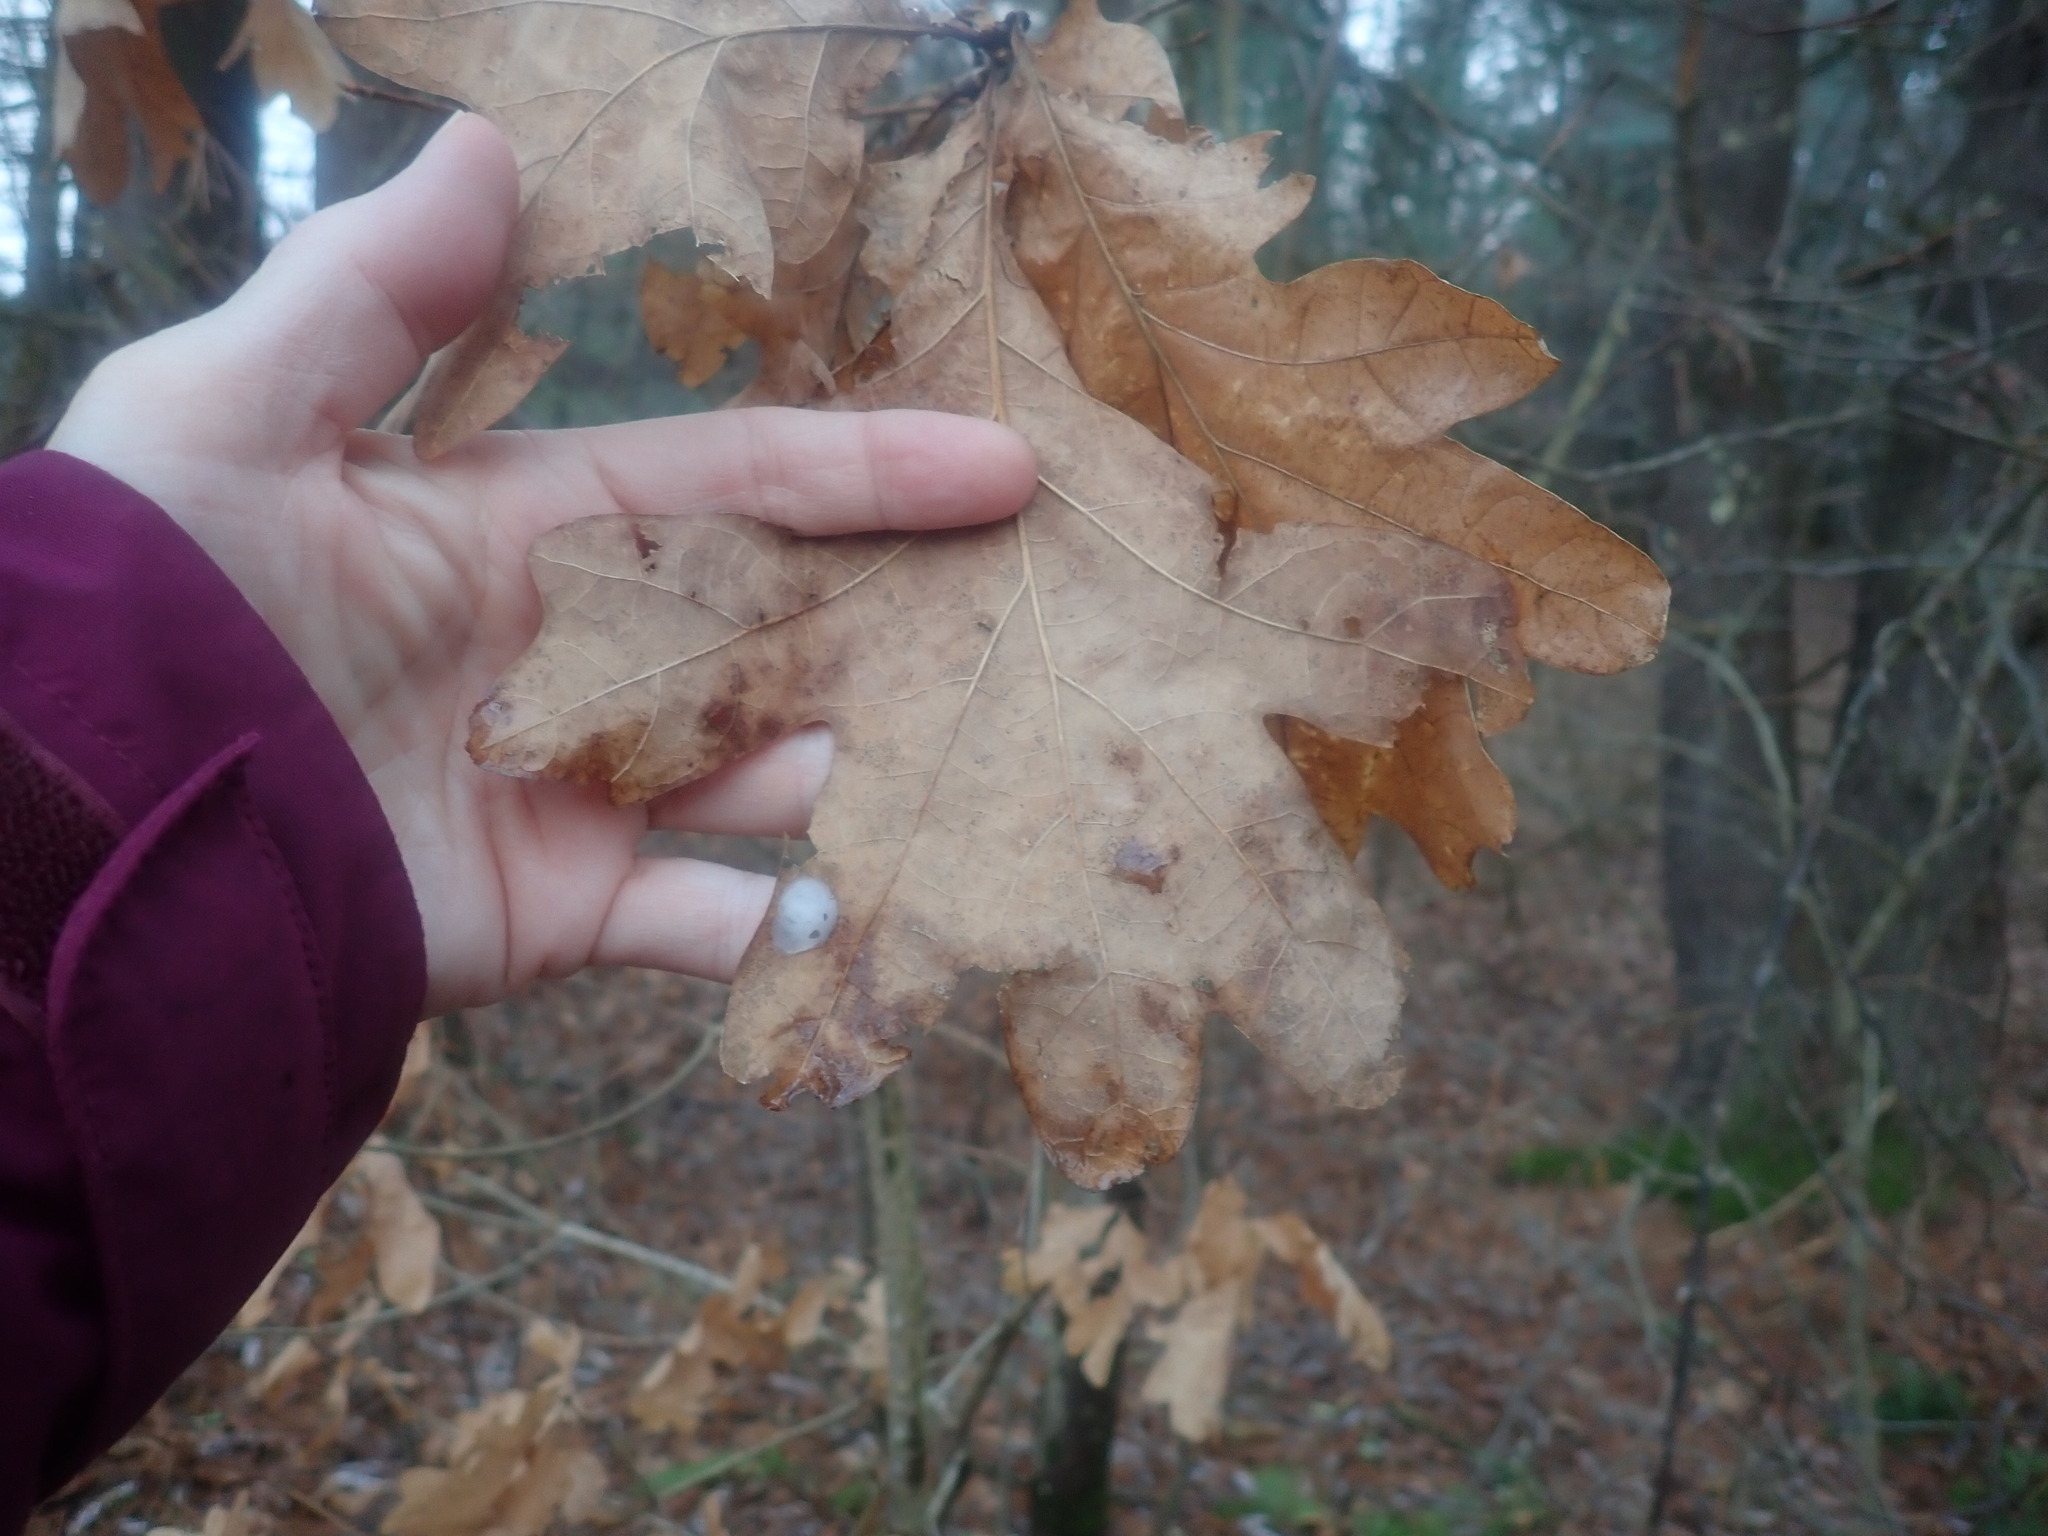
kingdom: Plantae
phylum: Tracheophyta
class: Magnoliopsida
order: Fagales
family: Fagaceae
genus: Quercus
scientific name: Quercus alba
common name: White oak
